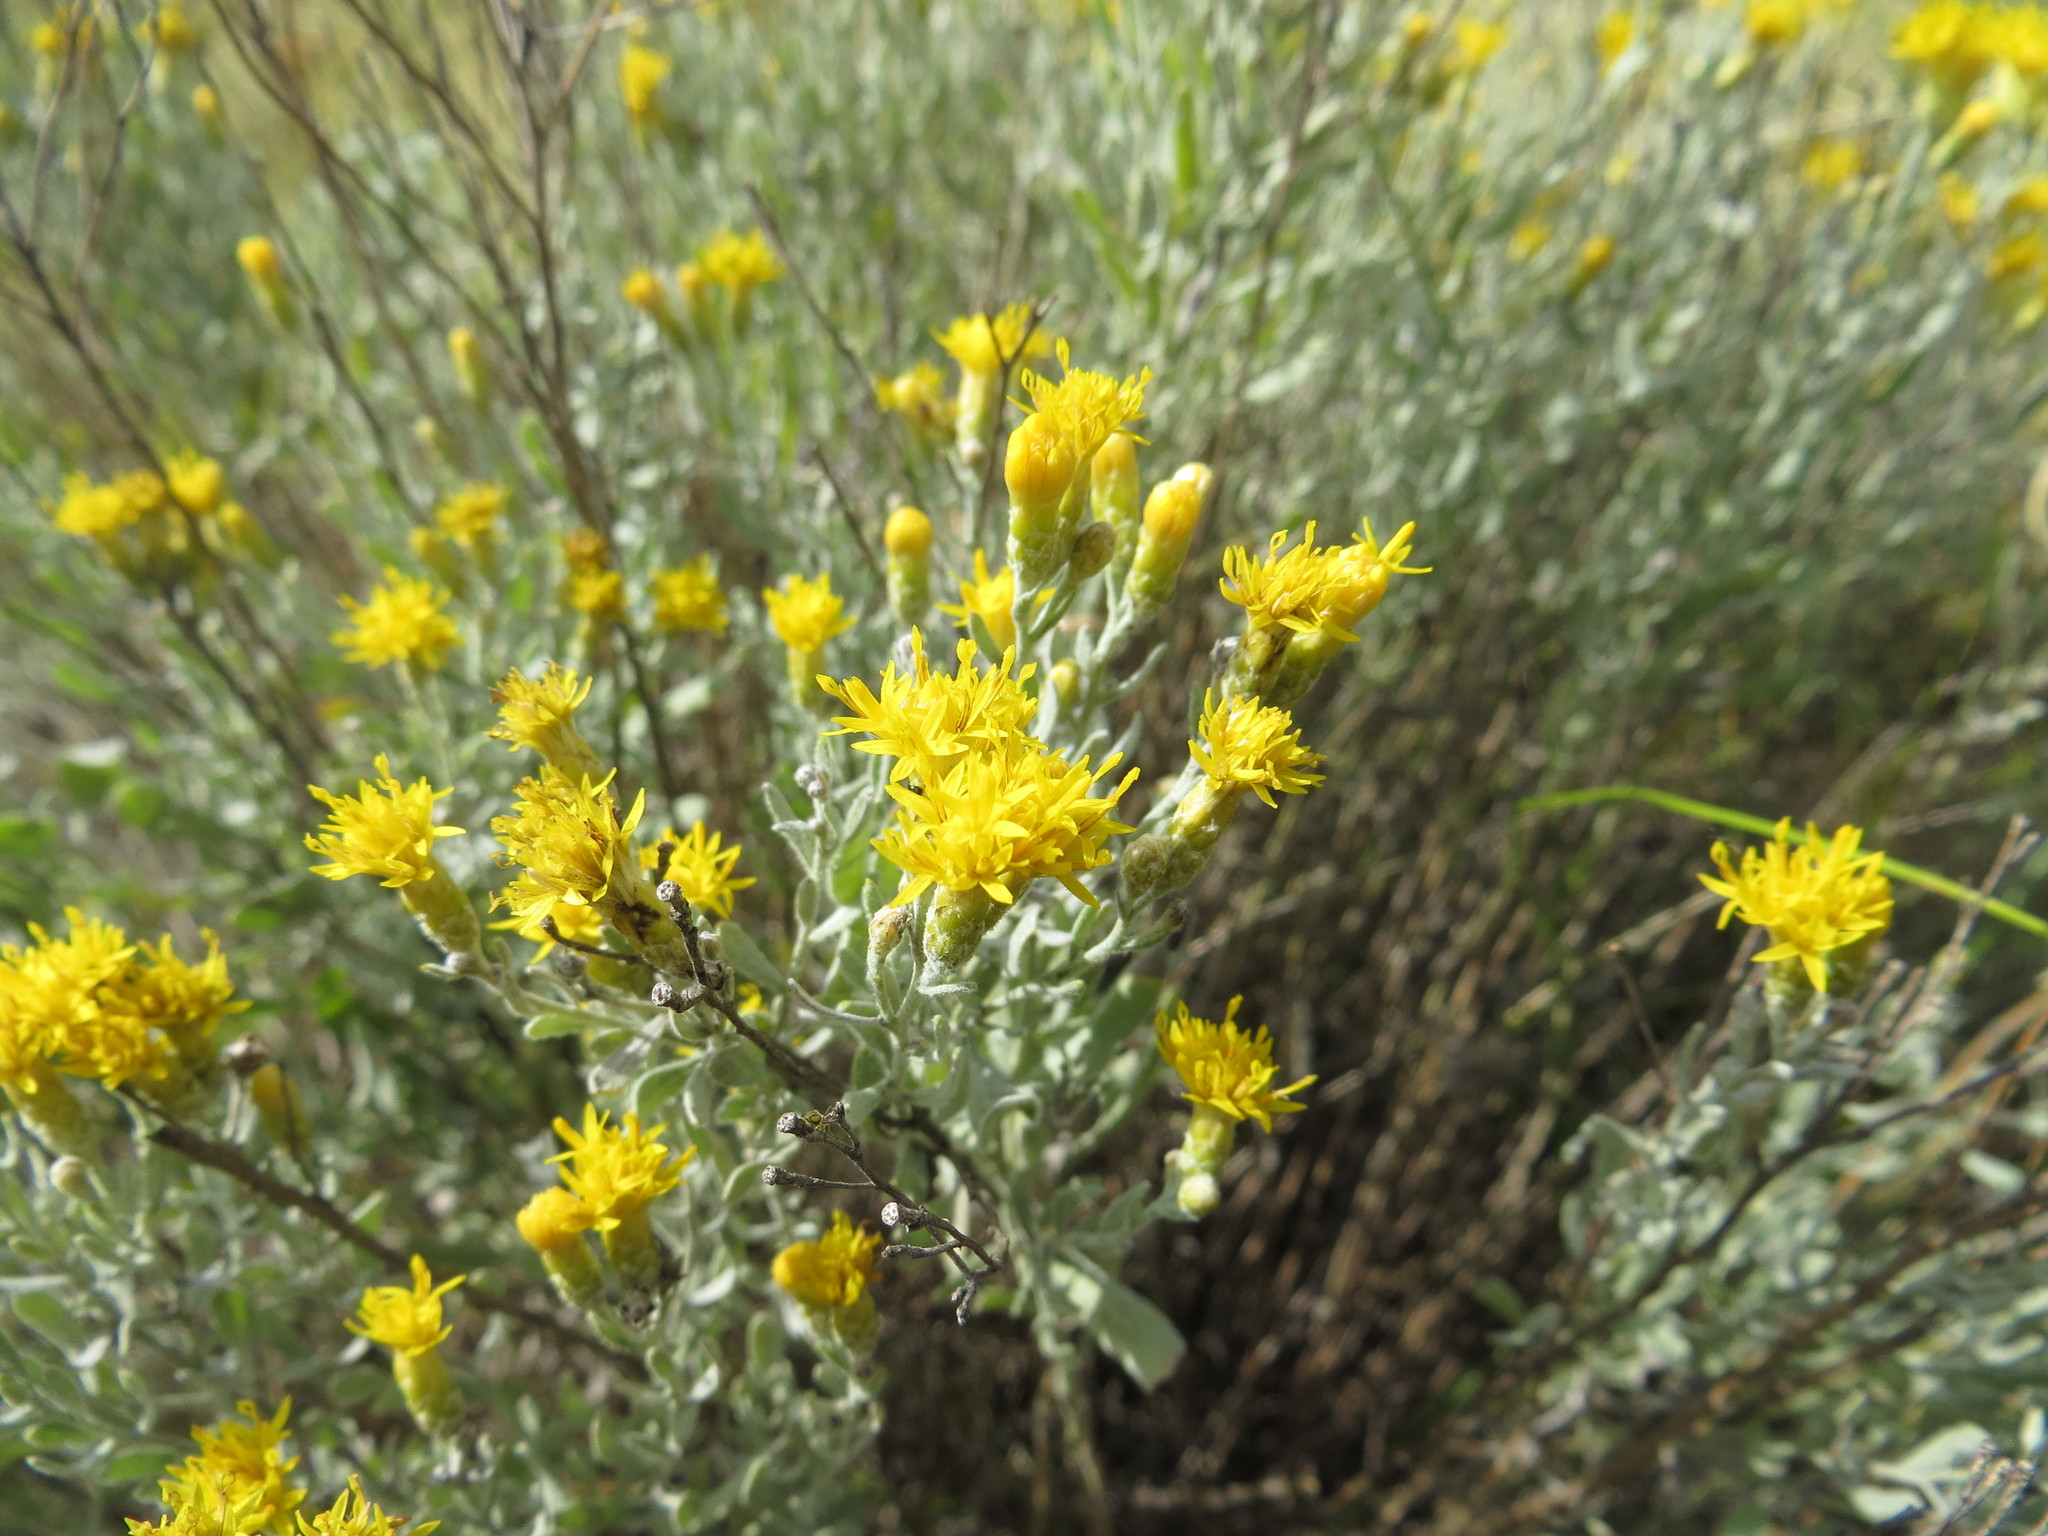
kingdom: Plantae
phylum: Tracheophyta
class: Magnoliopsida
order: Asterales
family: Asteraceae
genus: Galatella
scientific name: Galatella villosa
